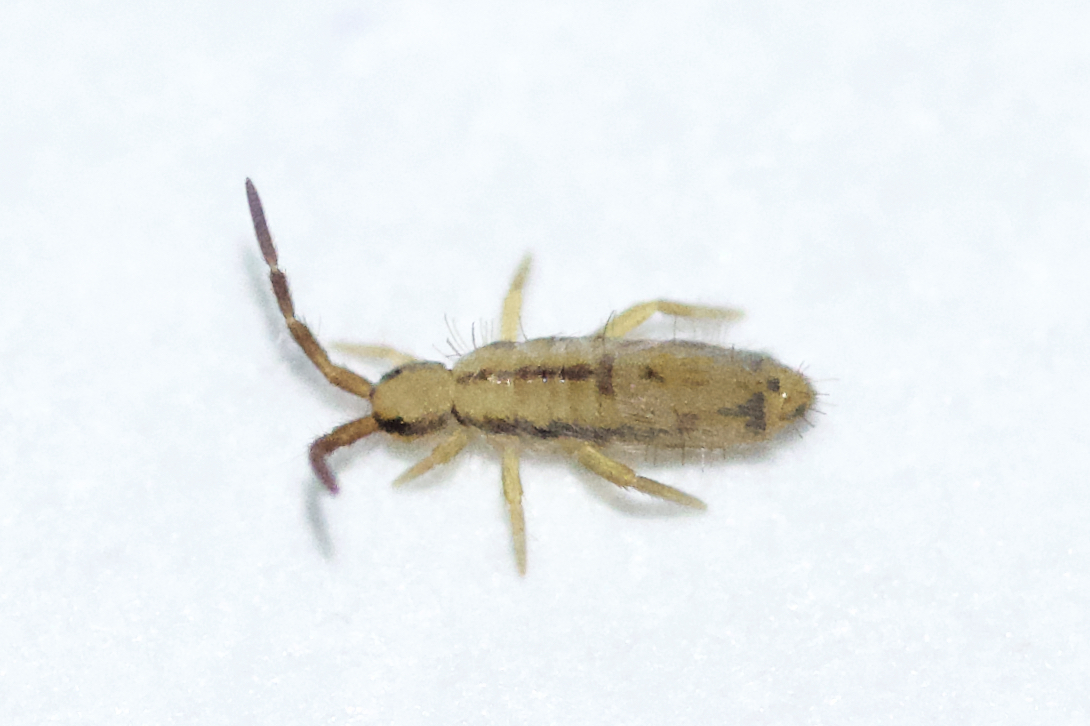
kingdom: Animalia
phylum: Arthropoda
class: Collembola
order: Entomobryomorpha
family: Entomobryidae
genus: Homidia
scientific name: Homidia socia
